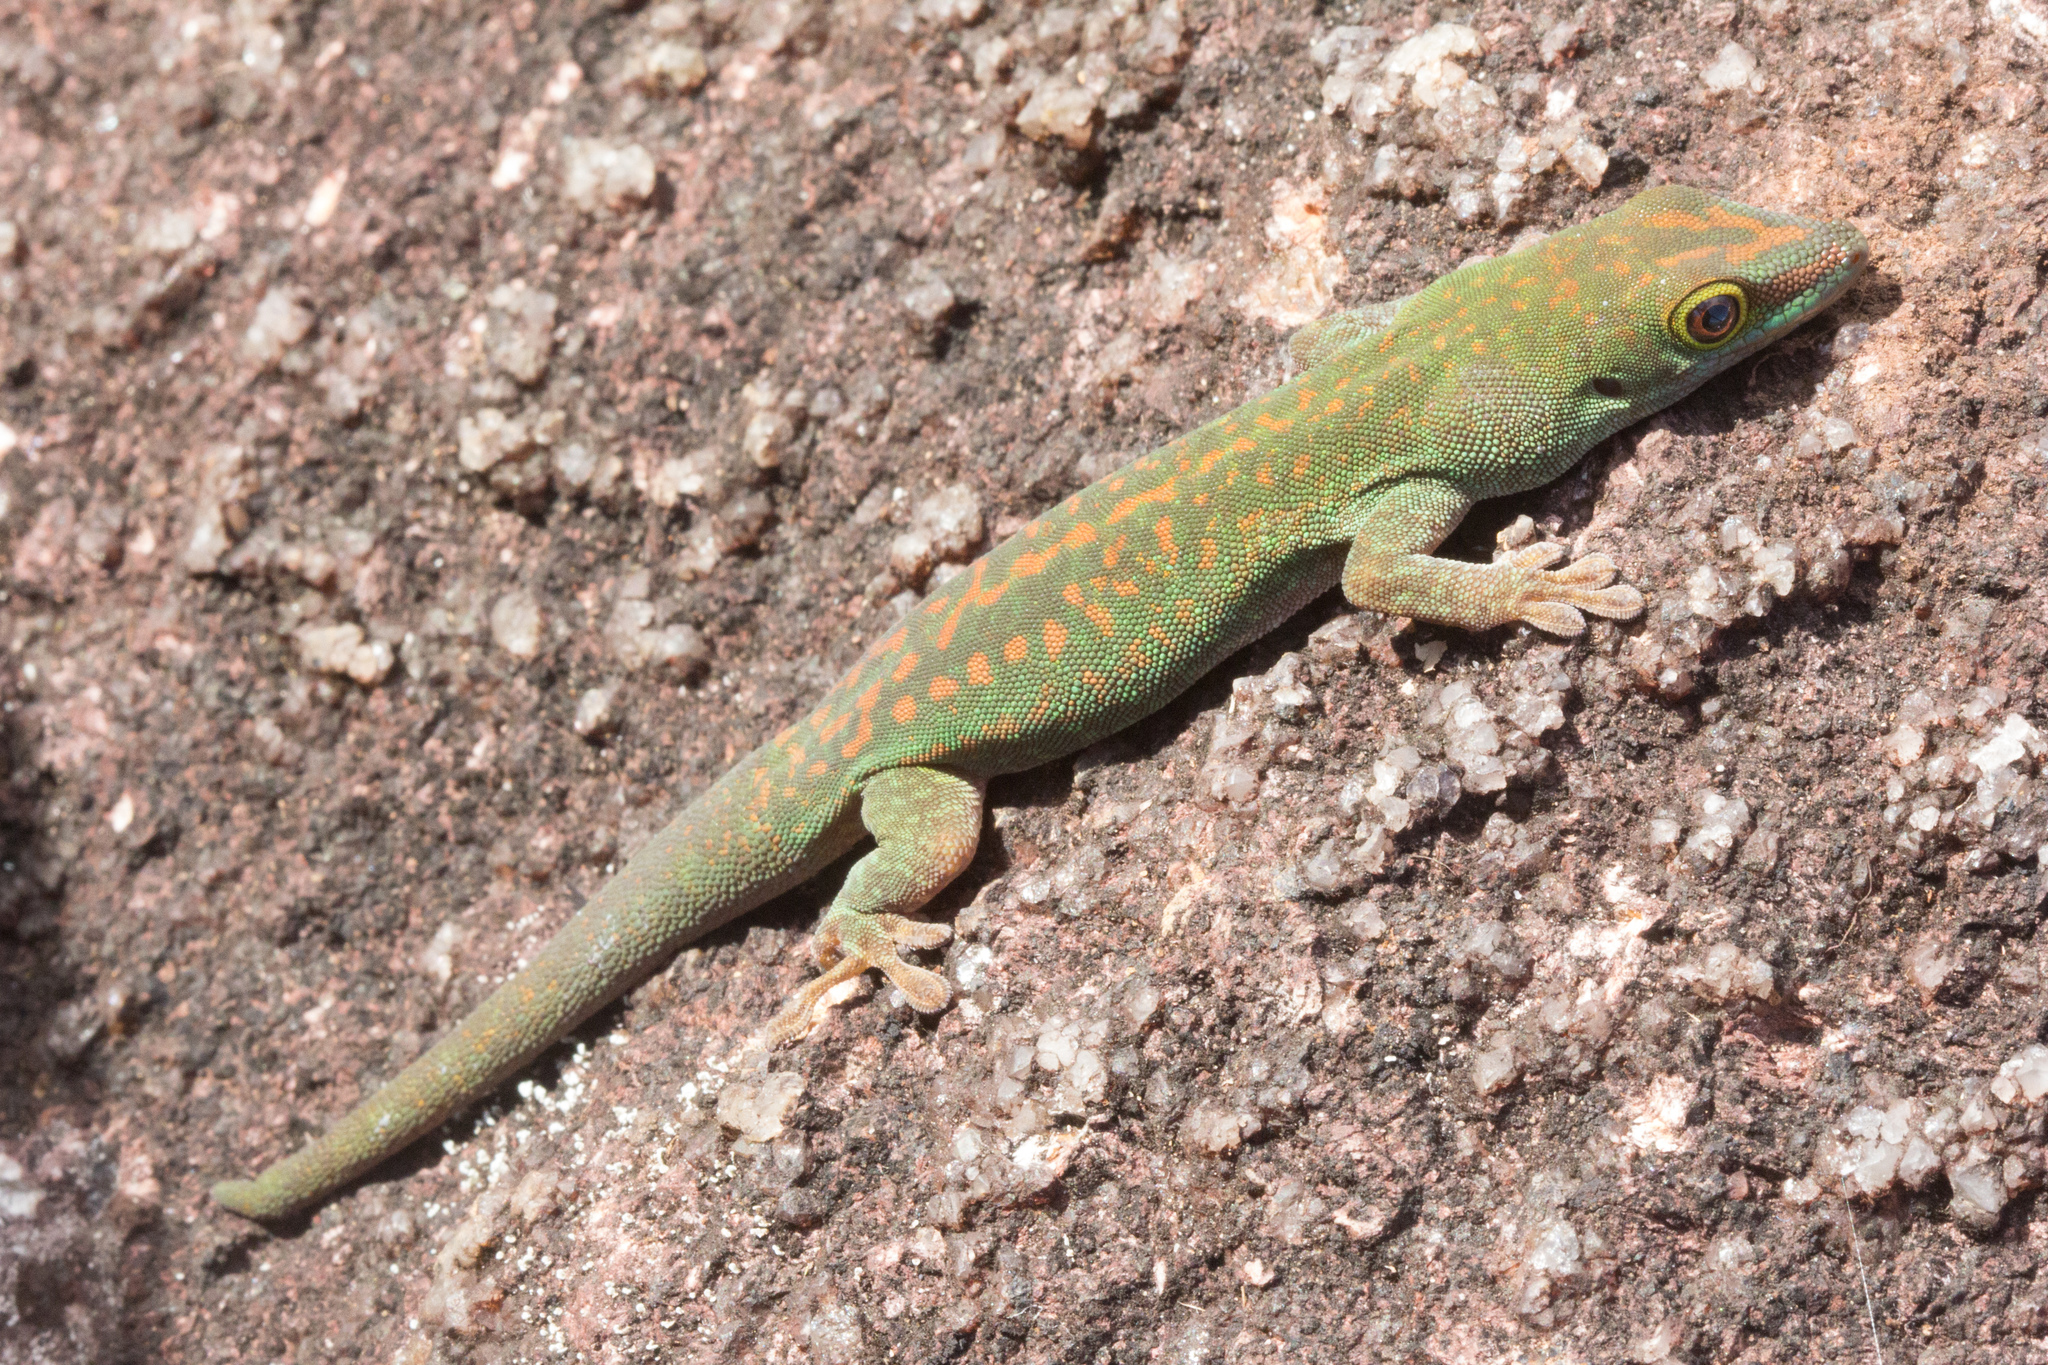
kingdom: Animalia
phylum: Chordata
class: Squamata
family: Gekkonidae
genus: Phelsuma
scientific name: Phelsuma sundbergi
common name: Seychelles giant day gecko
